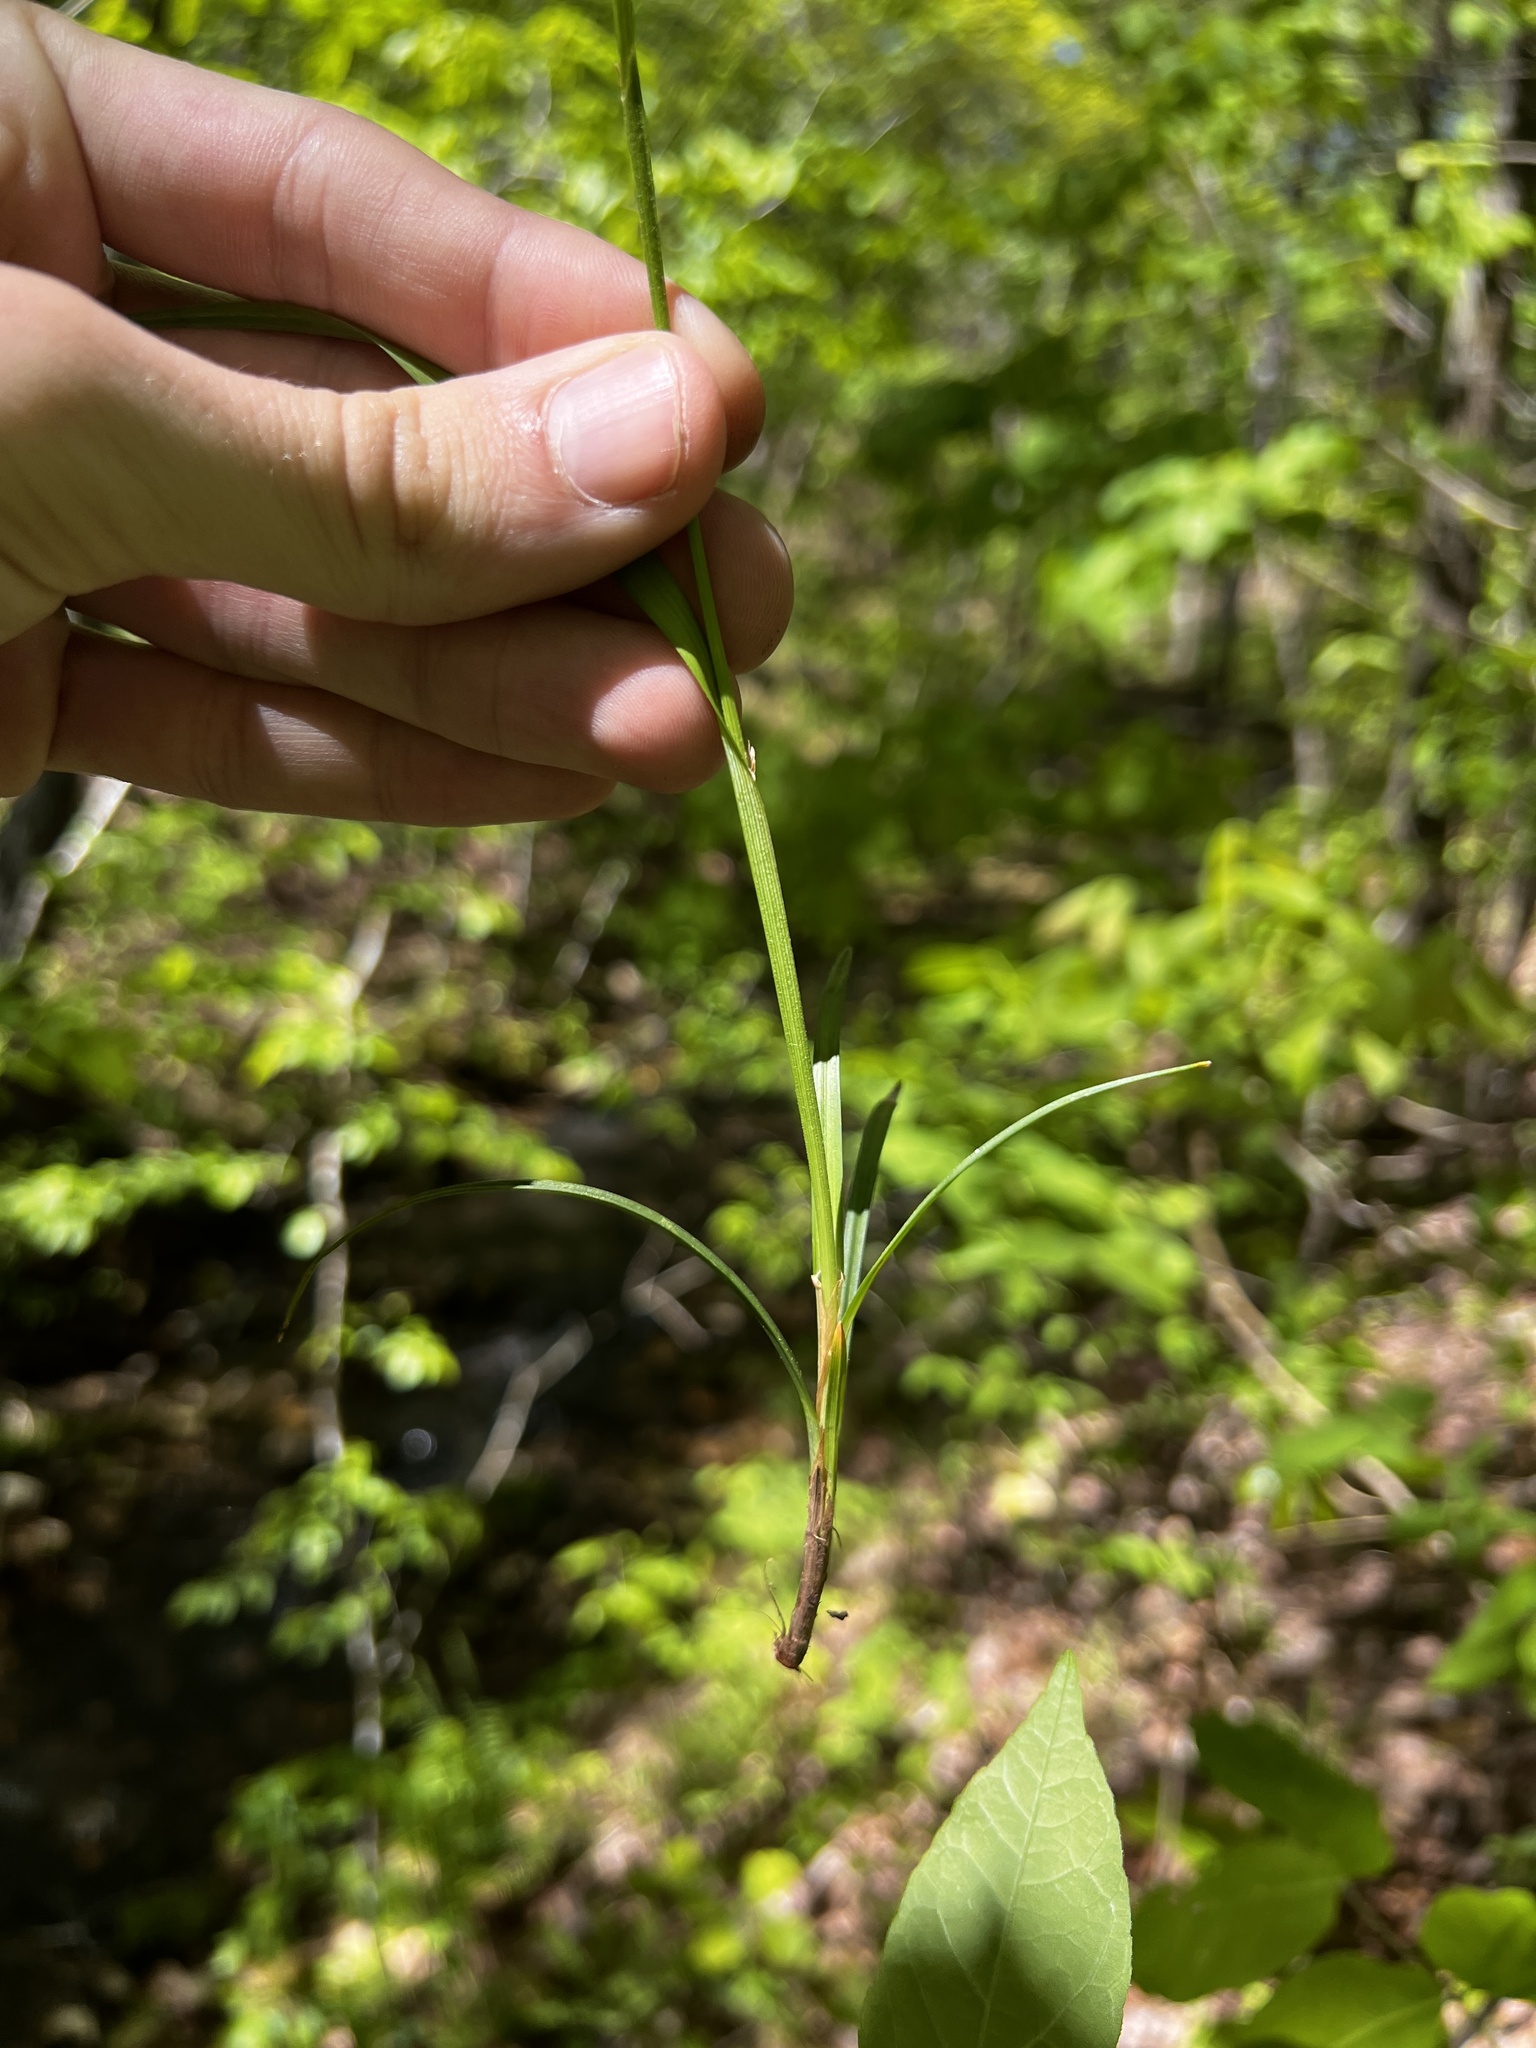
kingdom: Plantae
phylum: Tracheophyta
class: Liliopsida
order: Poales
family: Cyperaceae
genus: Carex
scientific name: Carex hitchcockiana
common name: Hairy grey sedge
